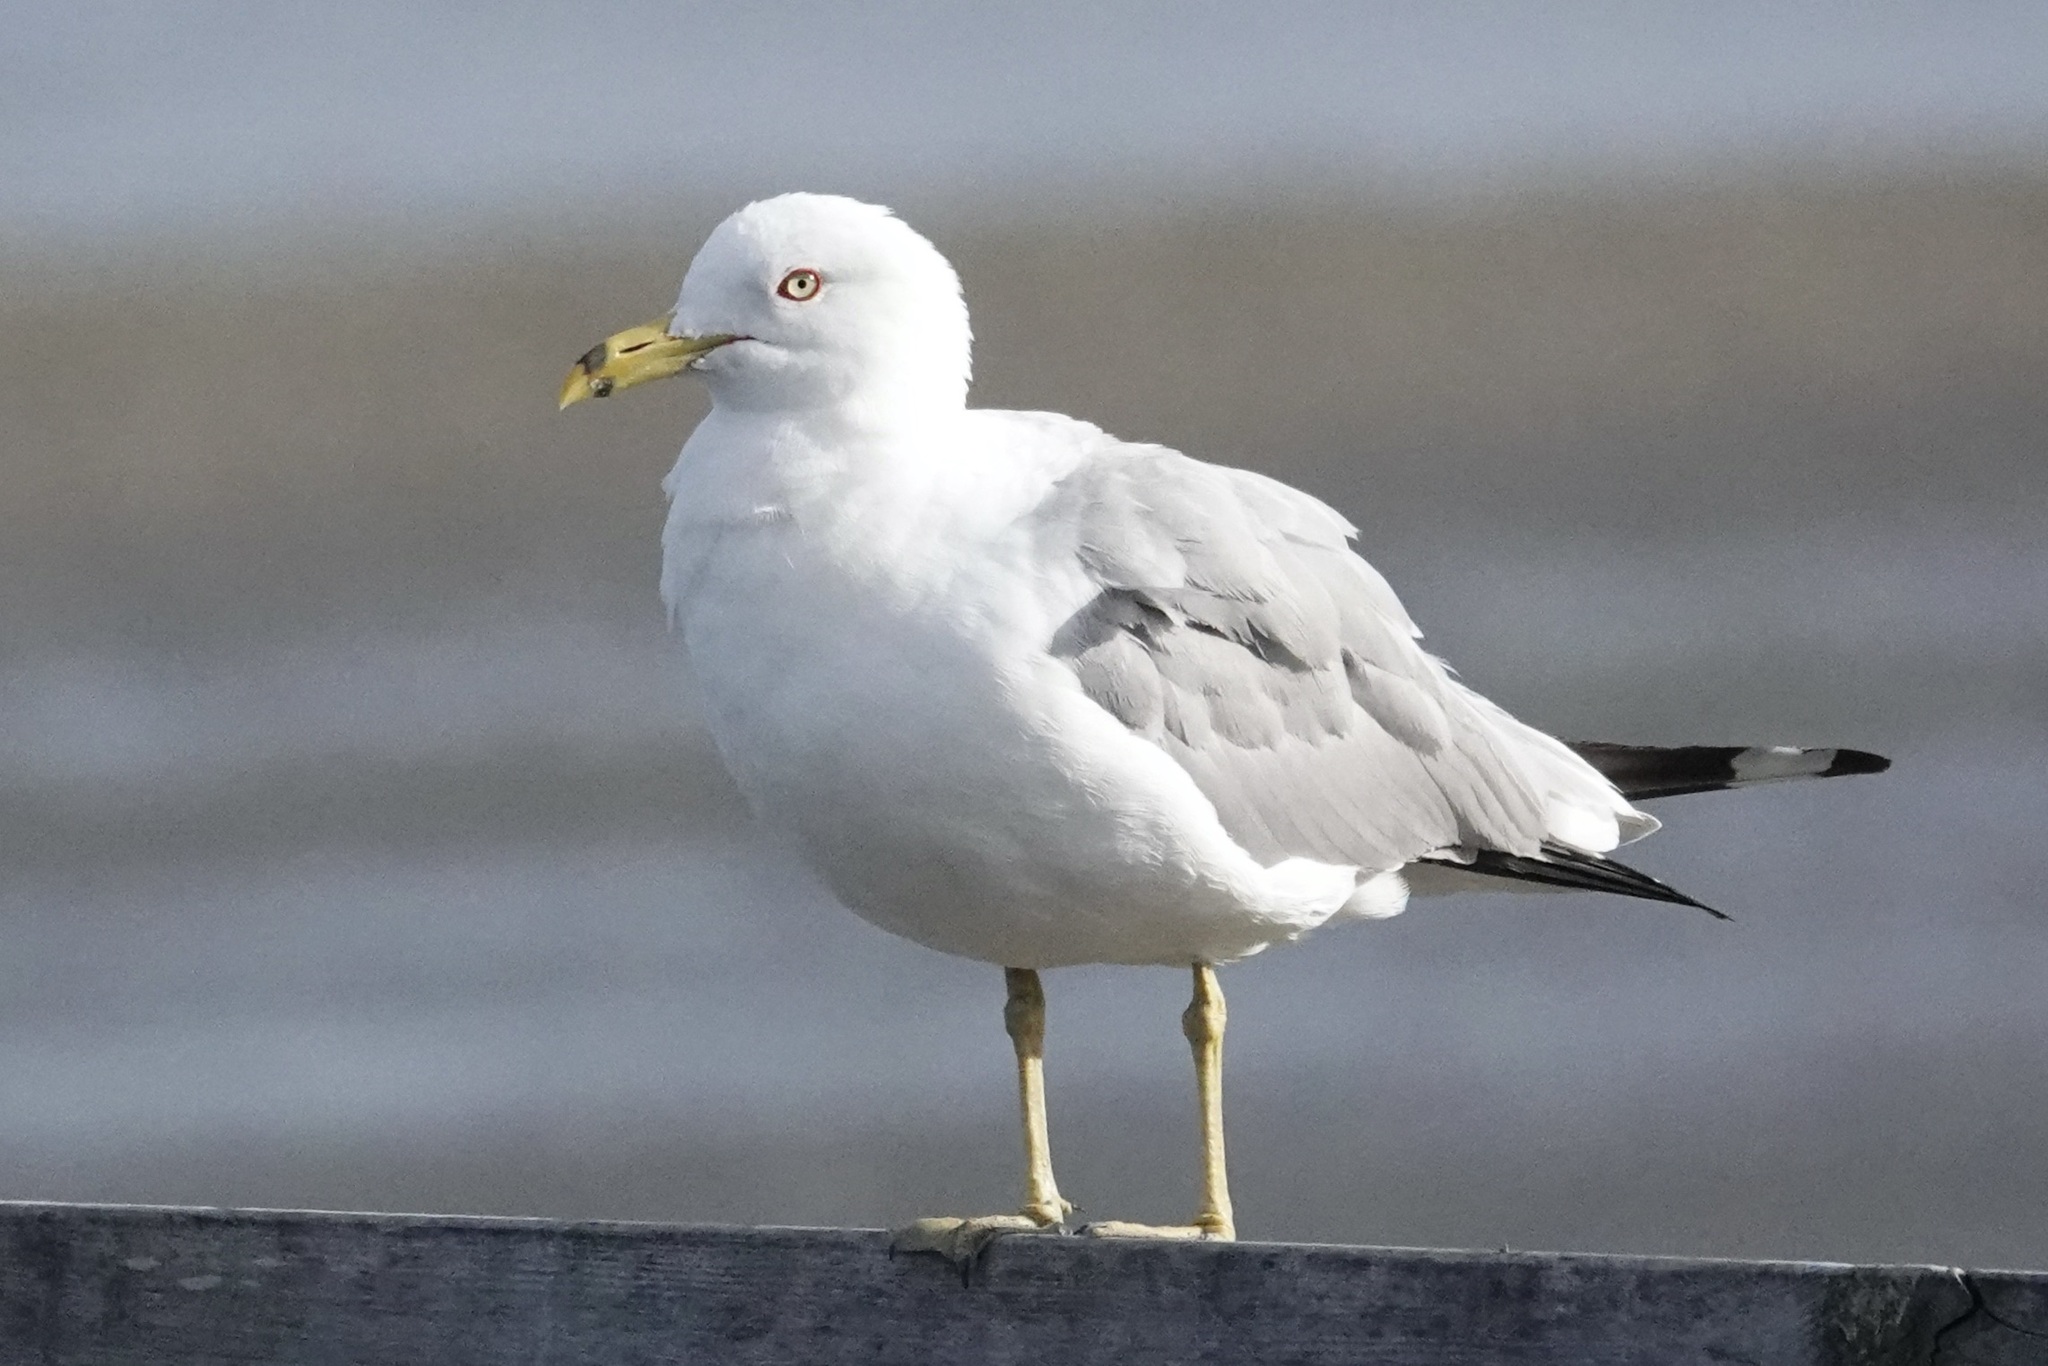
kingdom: Animalia
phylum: Chordata
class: Aves
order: Charadriiformes
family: Laridae
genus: Larus
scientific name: Larus delawarensis
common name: Ring-billed gull
